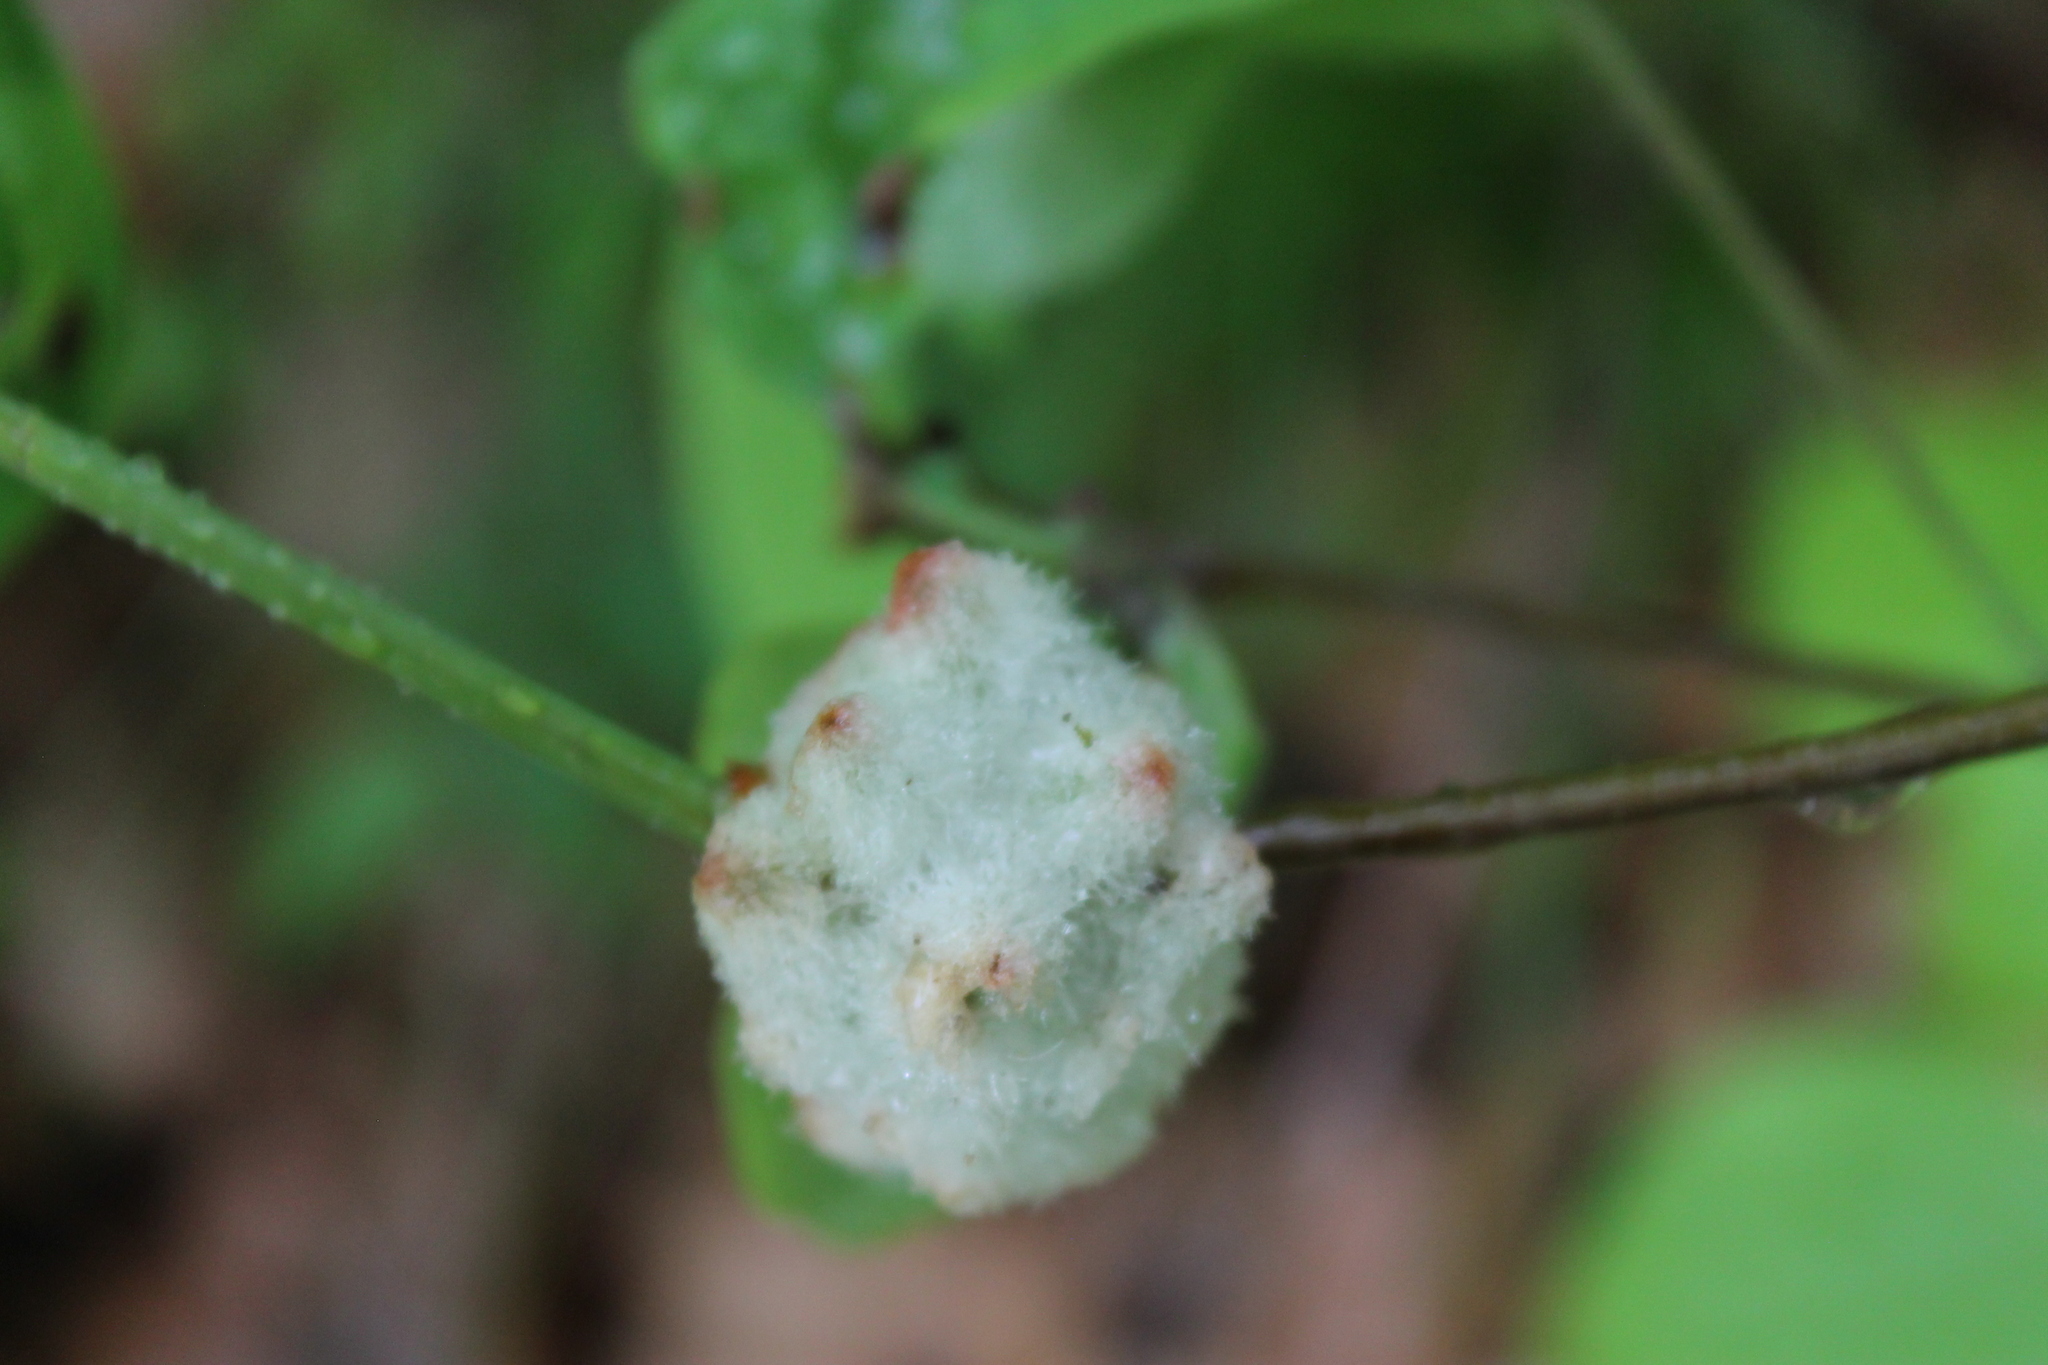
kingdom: Animalia
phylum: Arthropoda
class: Insecta
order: Hymenoptera
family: Cynipidae
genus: Callirhytis
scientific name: Callirhytis
